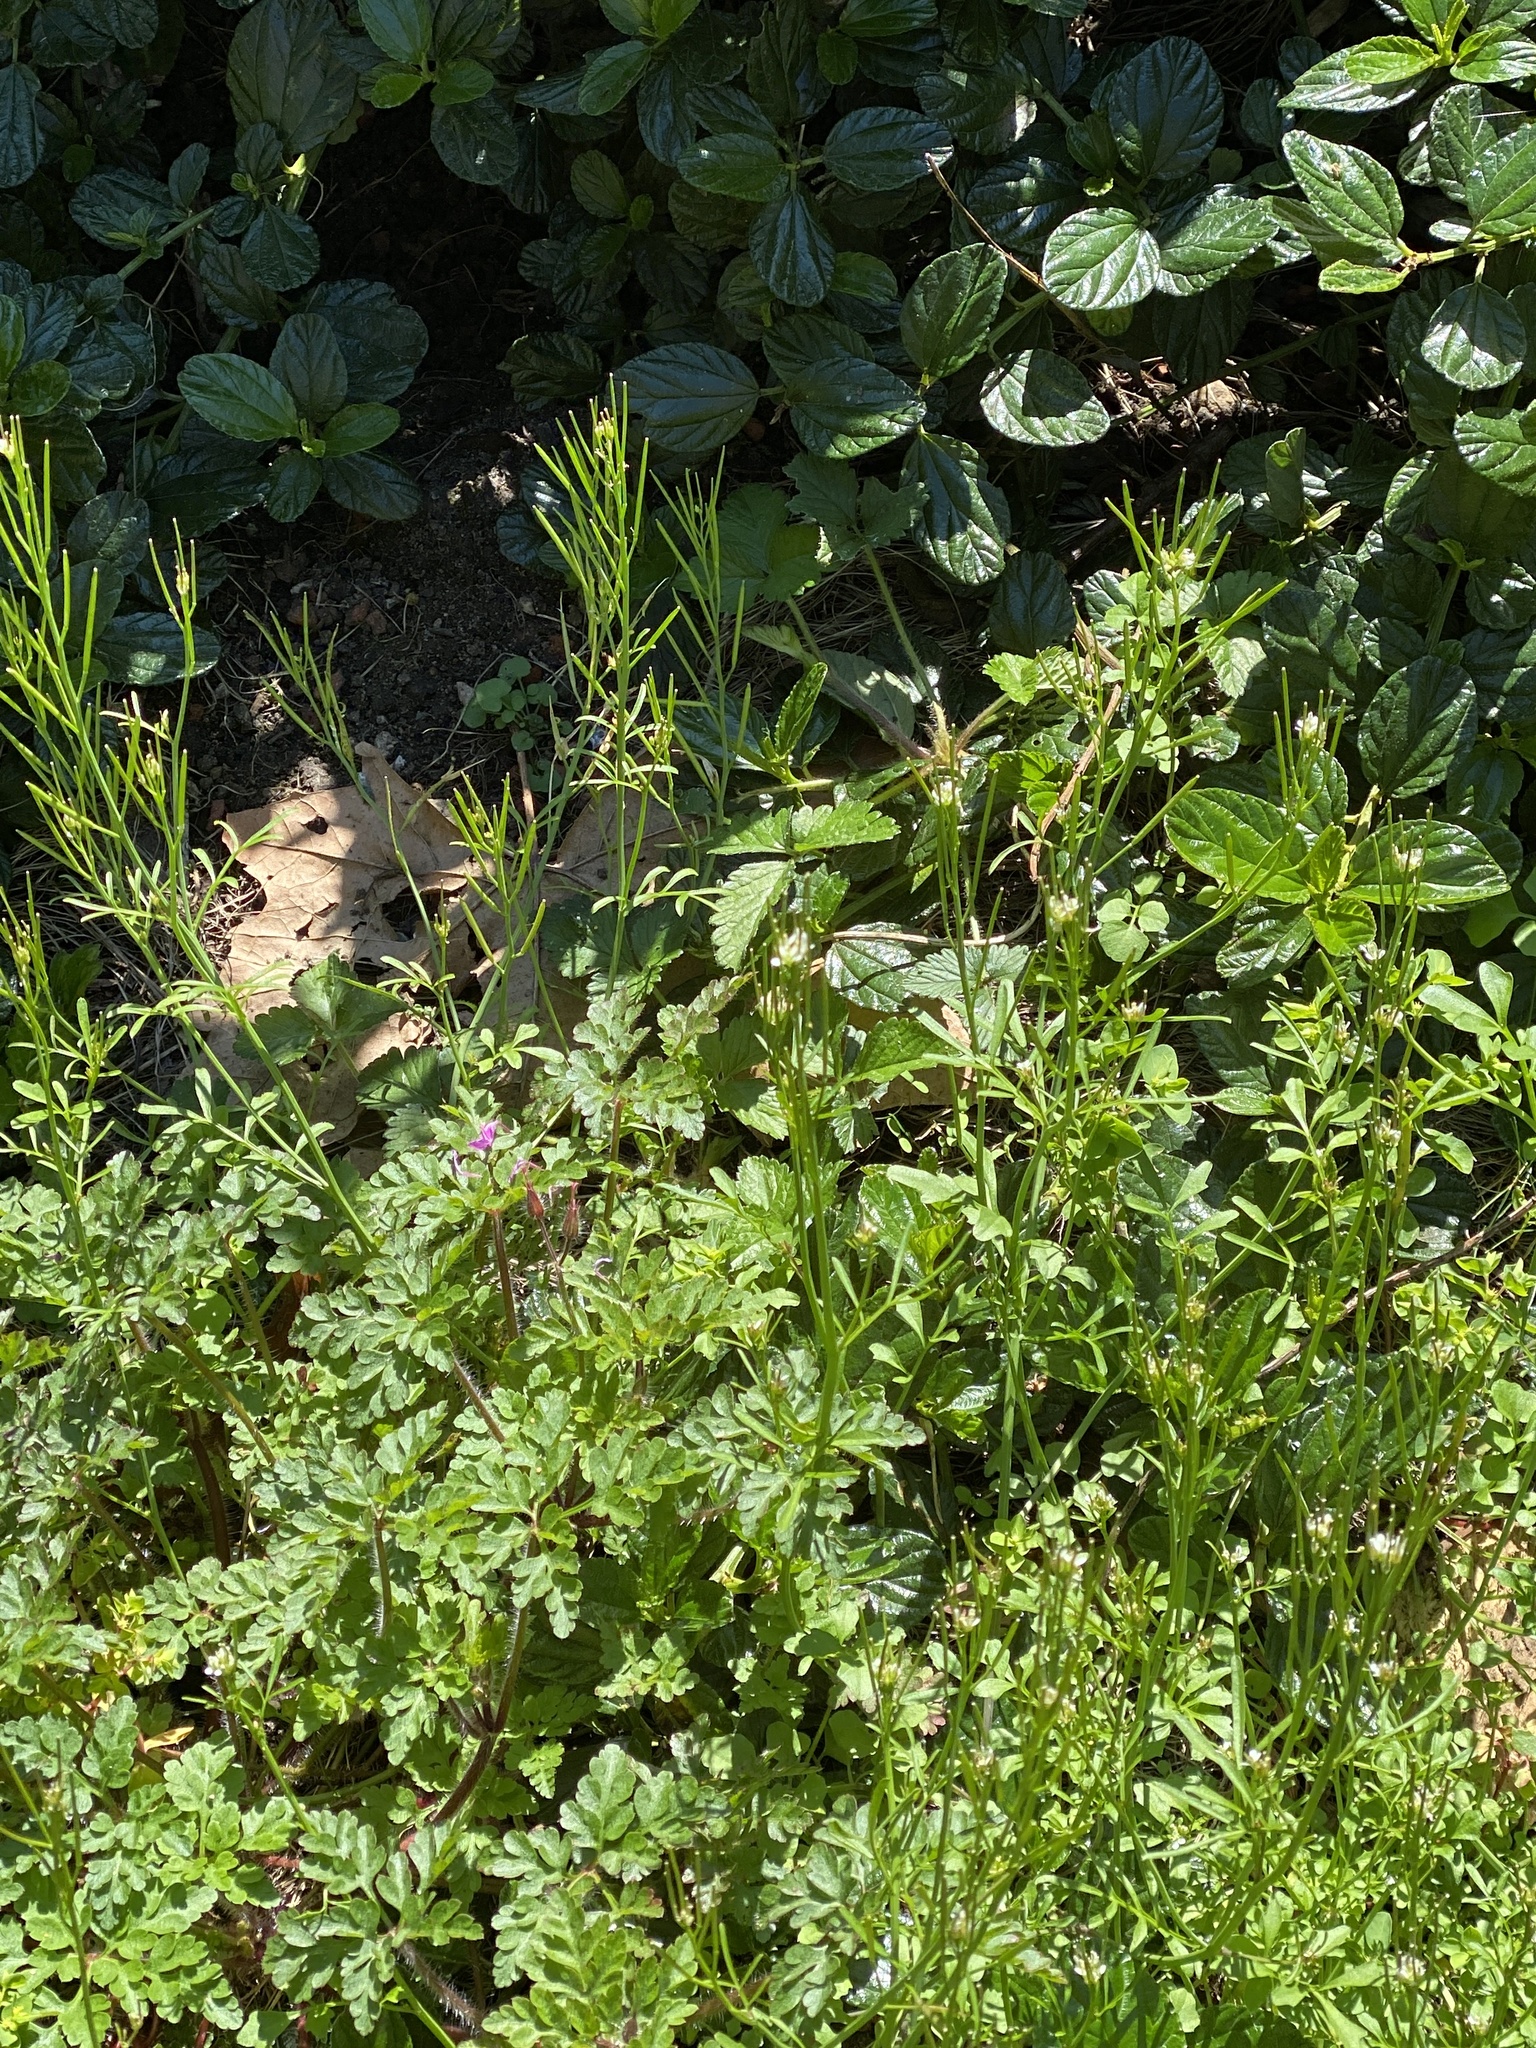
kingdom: Plantae
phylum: Tracheophyta
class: Magnoliopsida
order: Brassicales
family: Brassicaceae
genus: Cardamine
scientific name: Cardamine hirsuta
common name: Hairy bittercress
